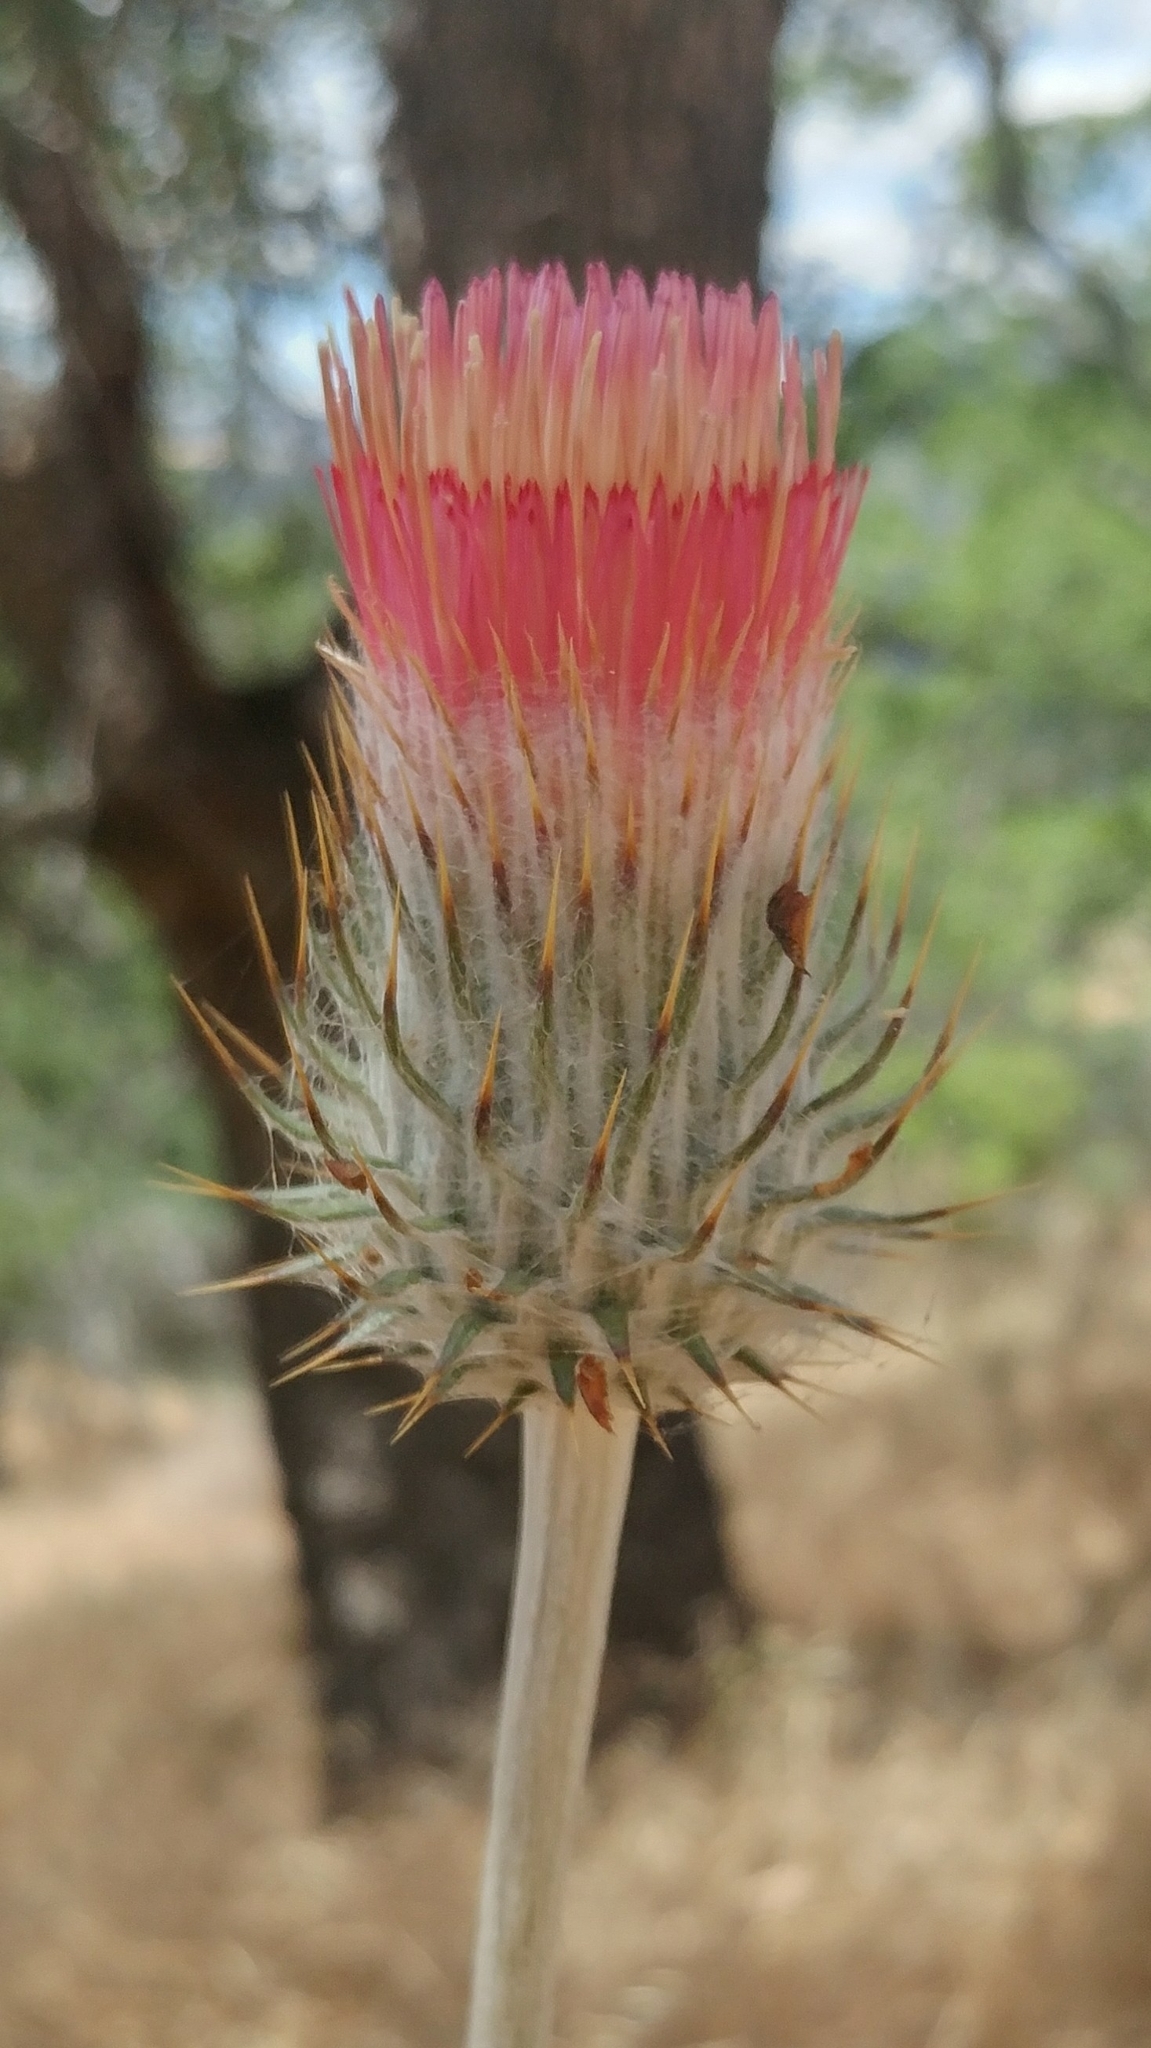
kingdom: Plantae
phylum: Tracheophyta
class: Magnoliopsida
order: Asterales
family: Asteraceae
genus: Cirsium
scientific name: Cirsium occidentale
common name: Western thistle
